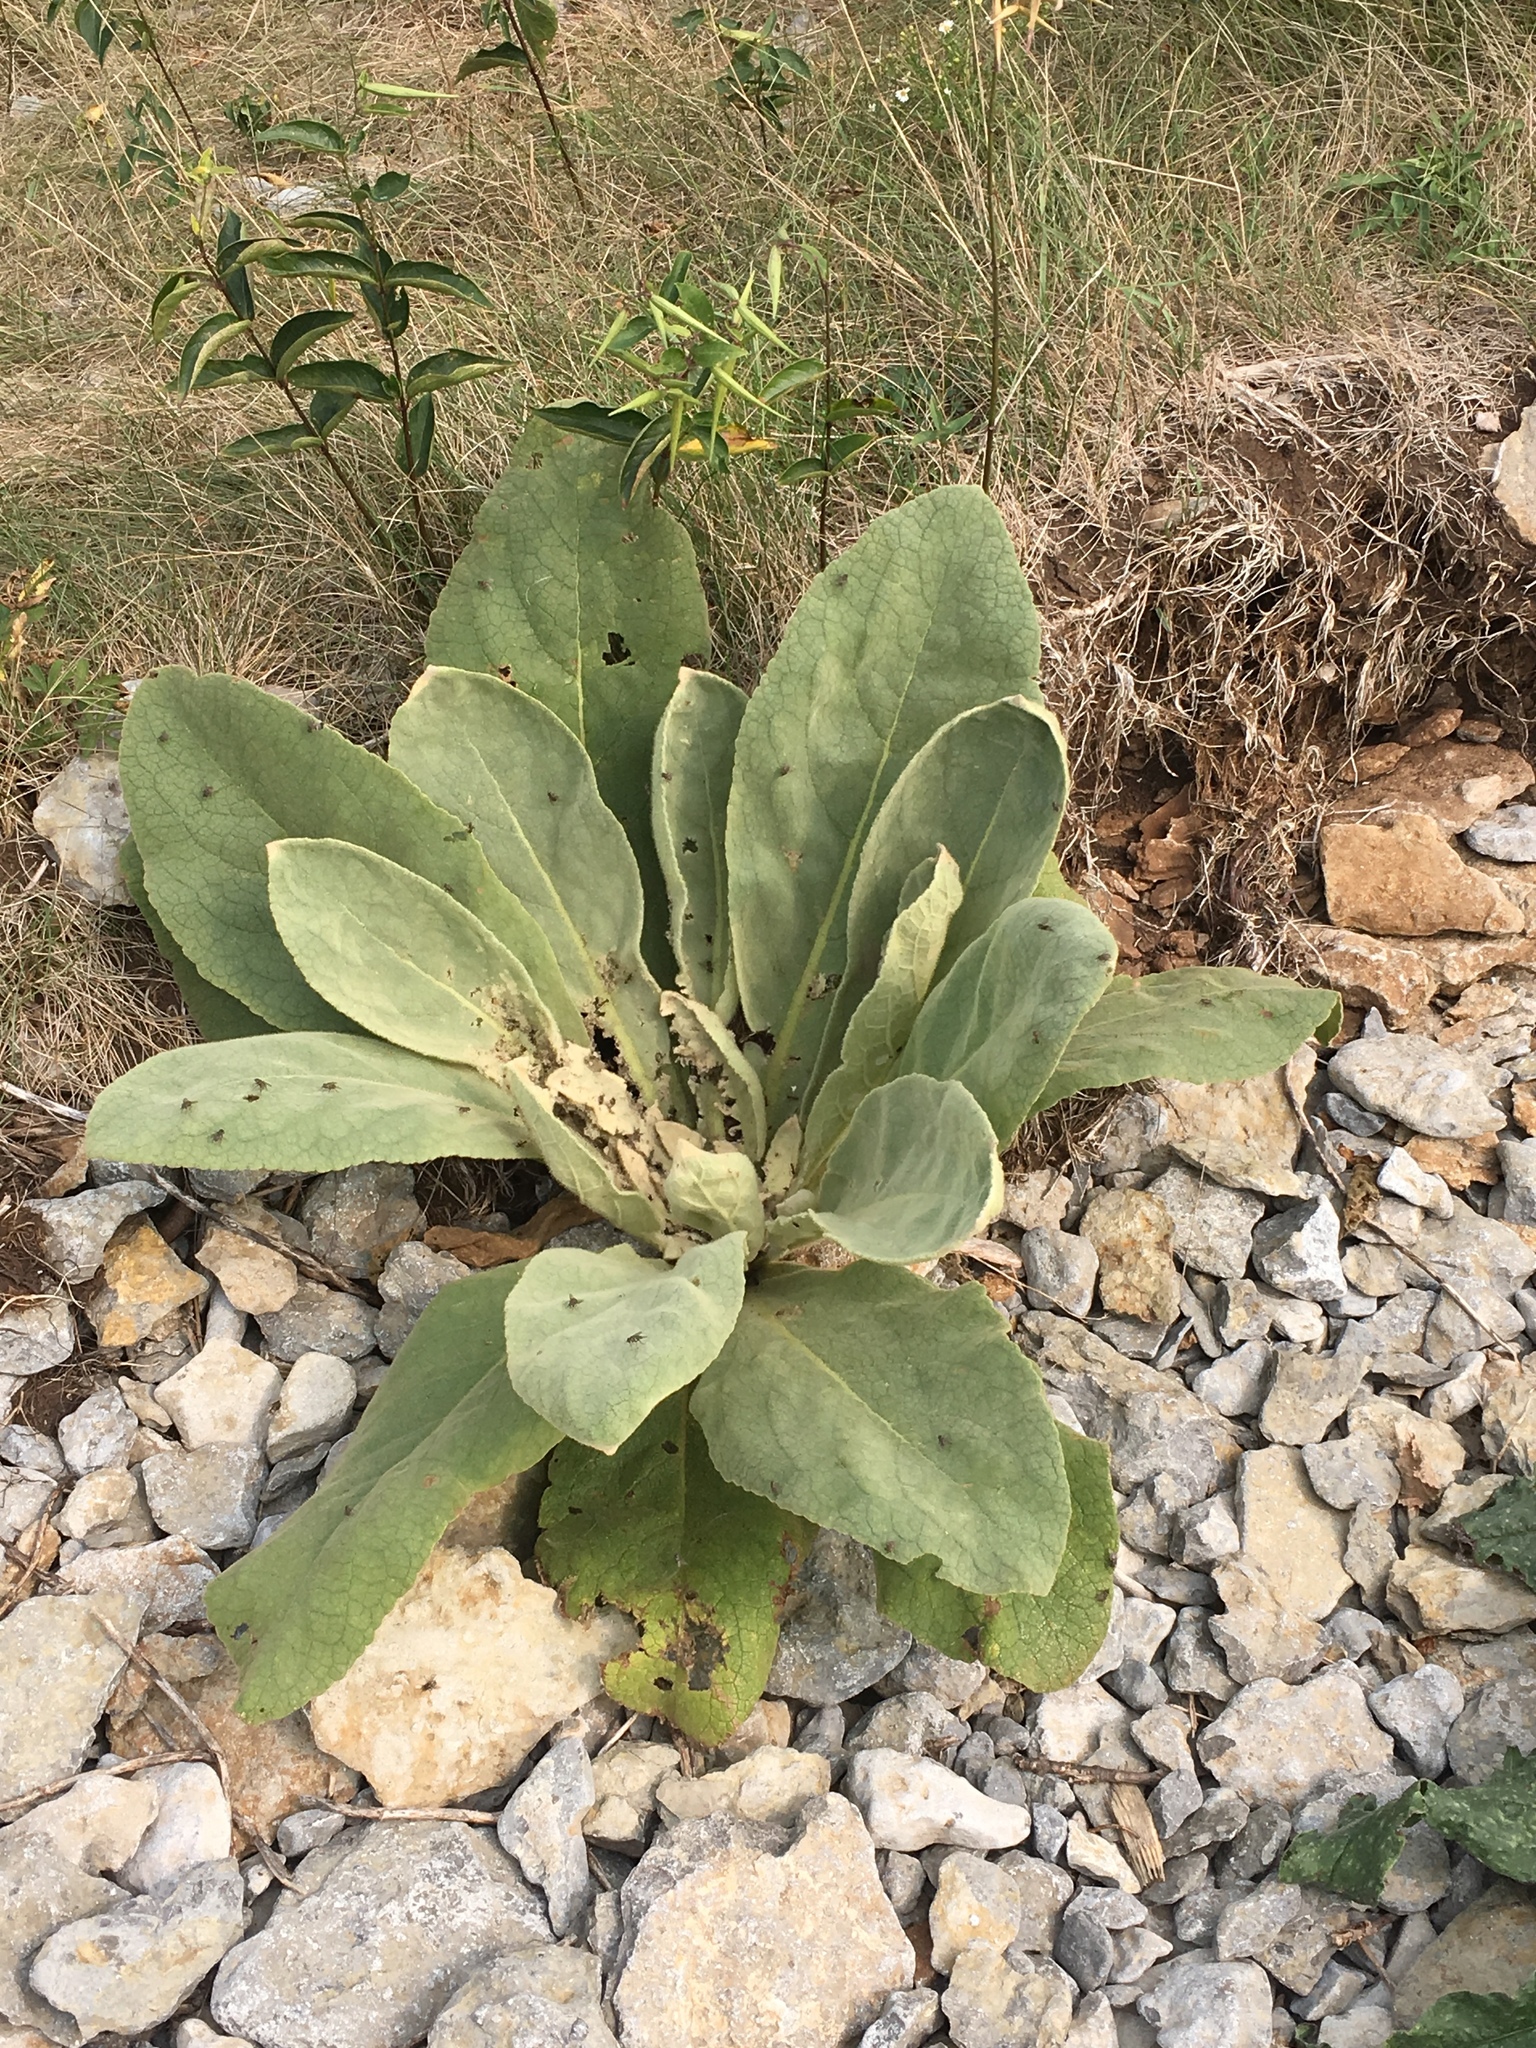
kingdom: Plantae
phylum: Tracheophyta
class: Magnoliopsida
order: Lamiales
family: Scrophulariaceae
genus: Verbascum
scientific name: Verbascum thapsus
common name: Common mullein
